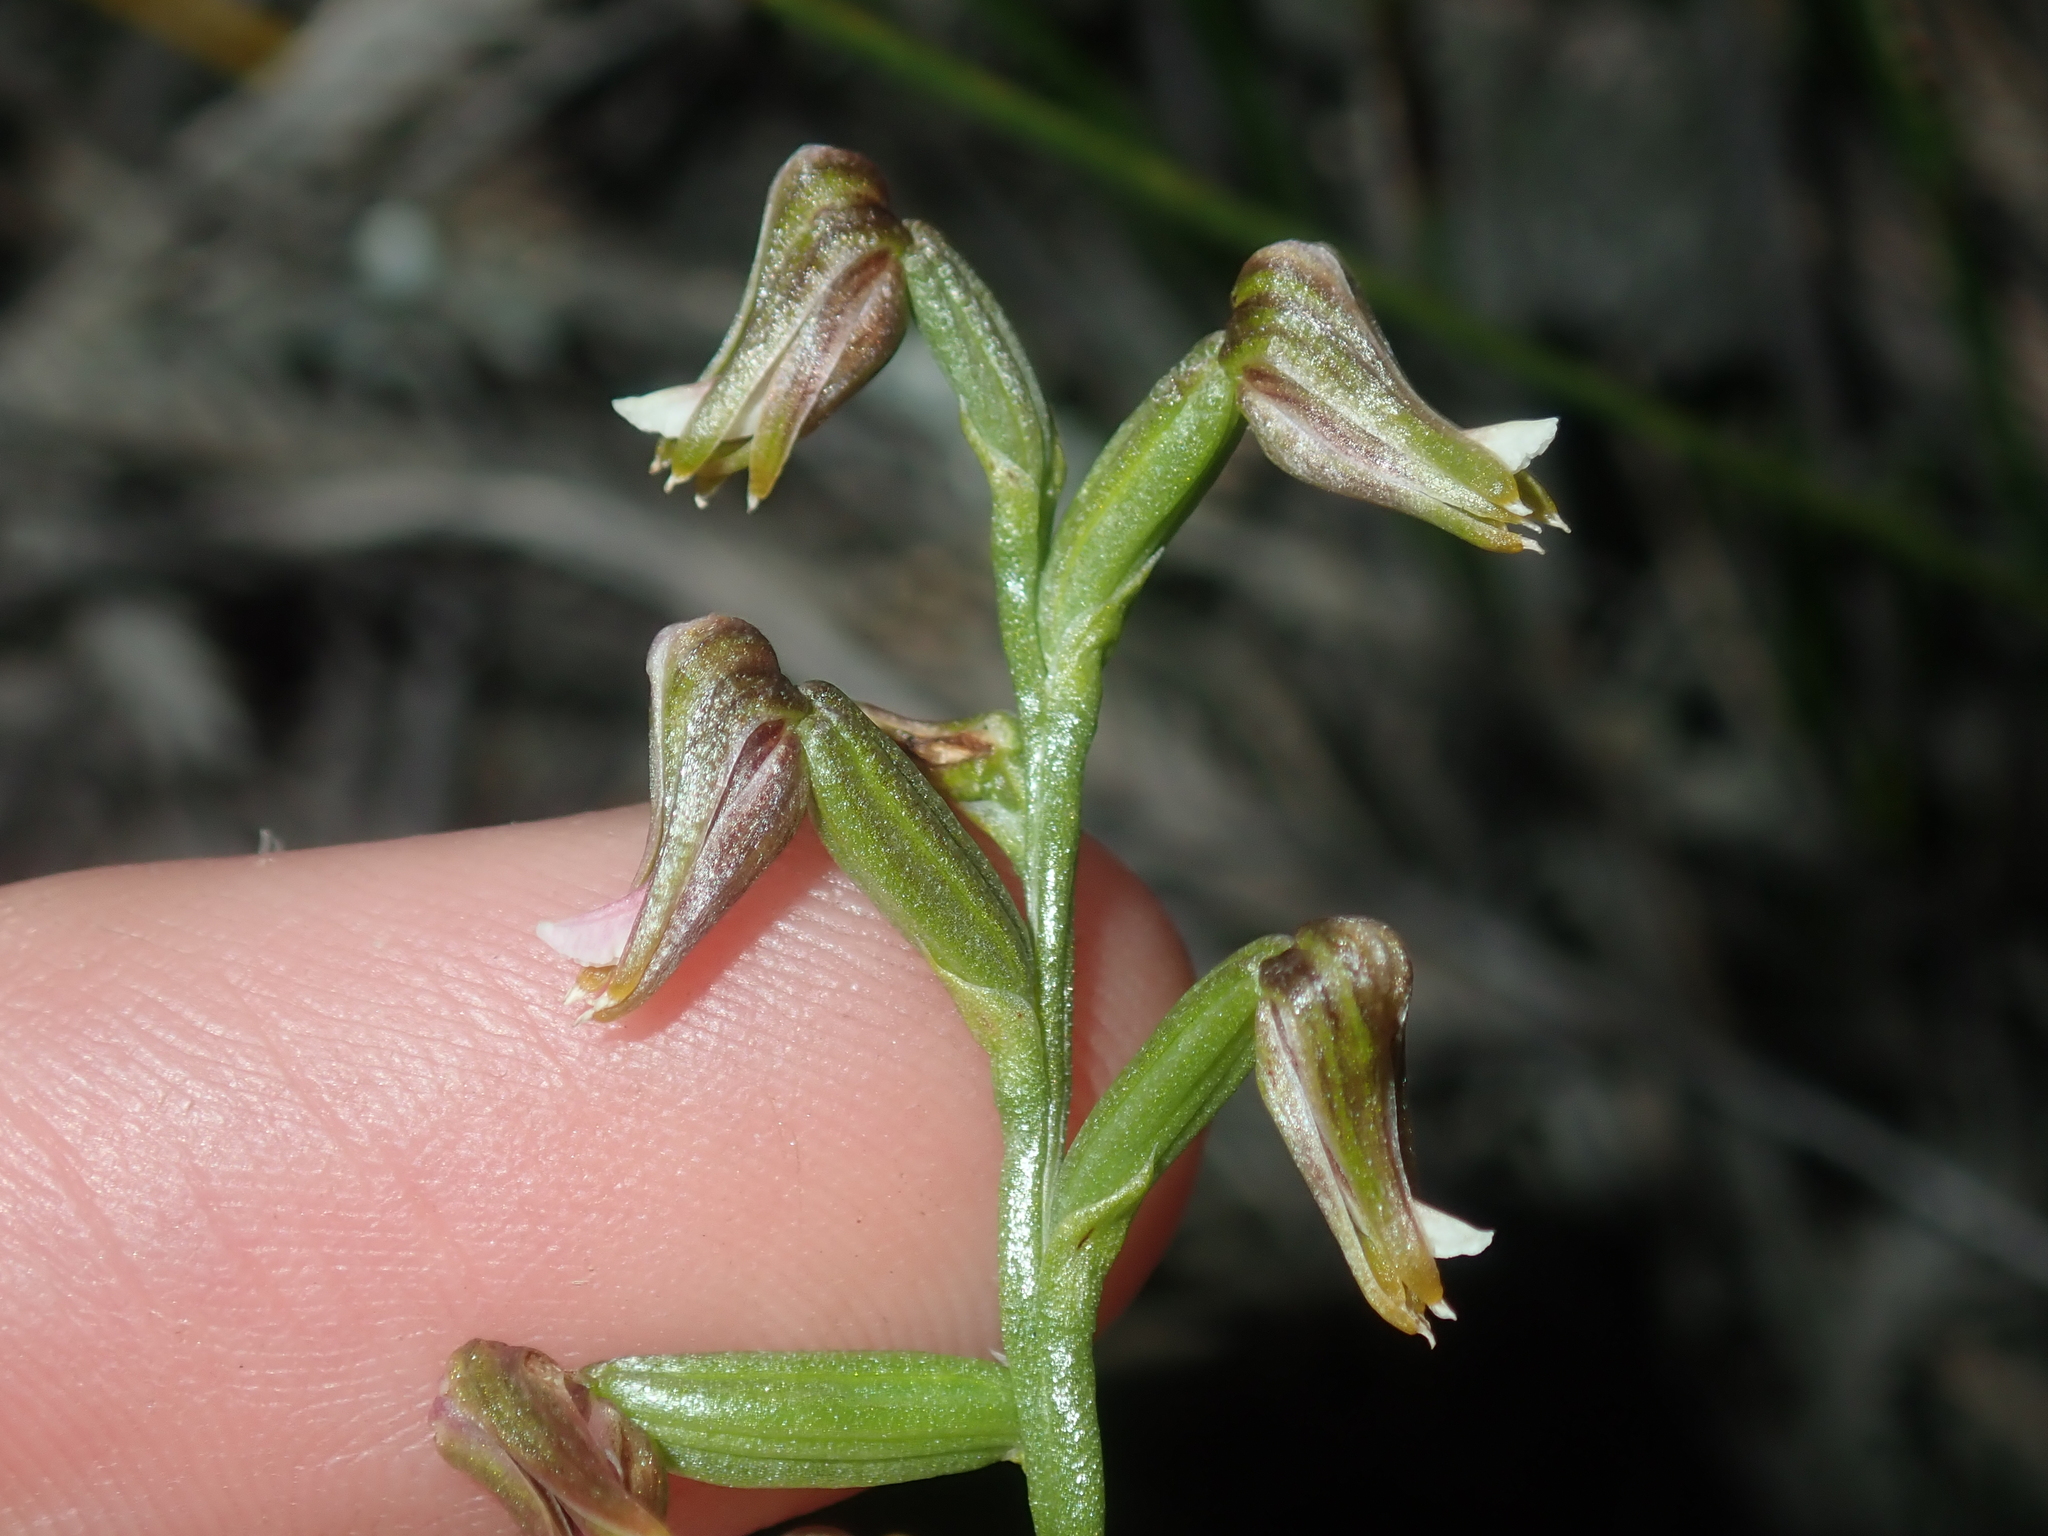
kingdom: Plantae
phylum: Tracheophyta
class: Liliopsida
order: Asparagales
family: Orchidaceae
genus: Prasophyllum
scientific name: Prasophyllum parvifolium
